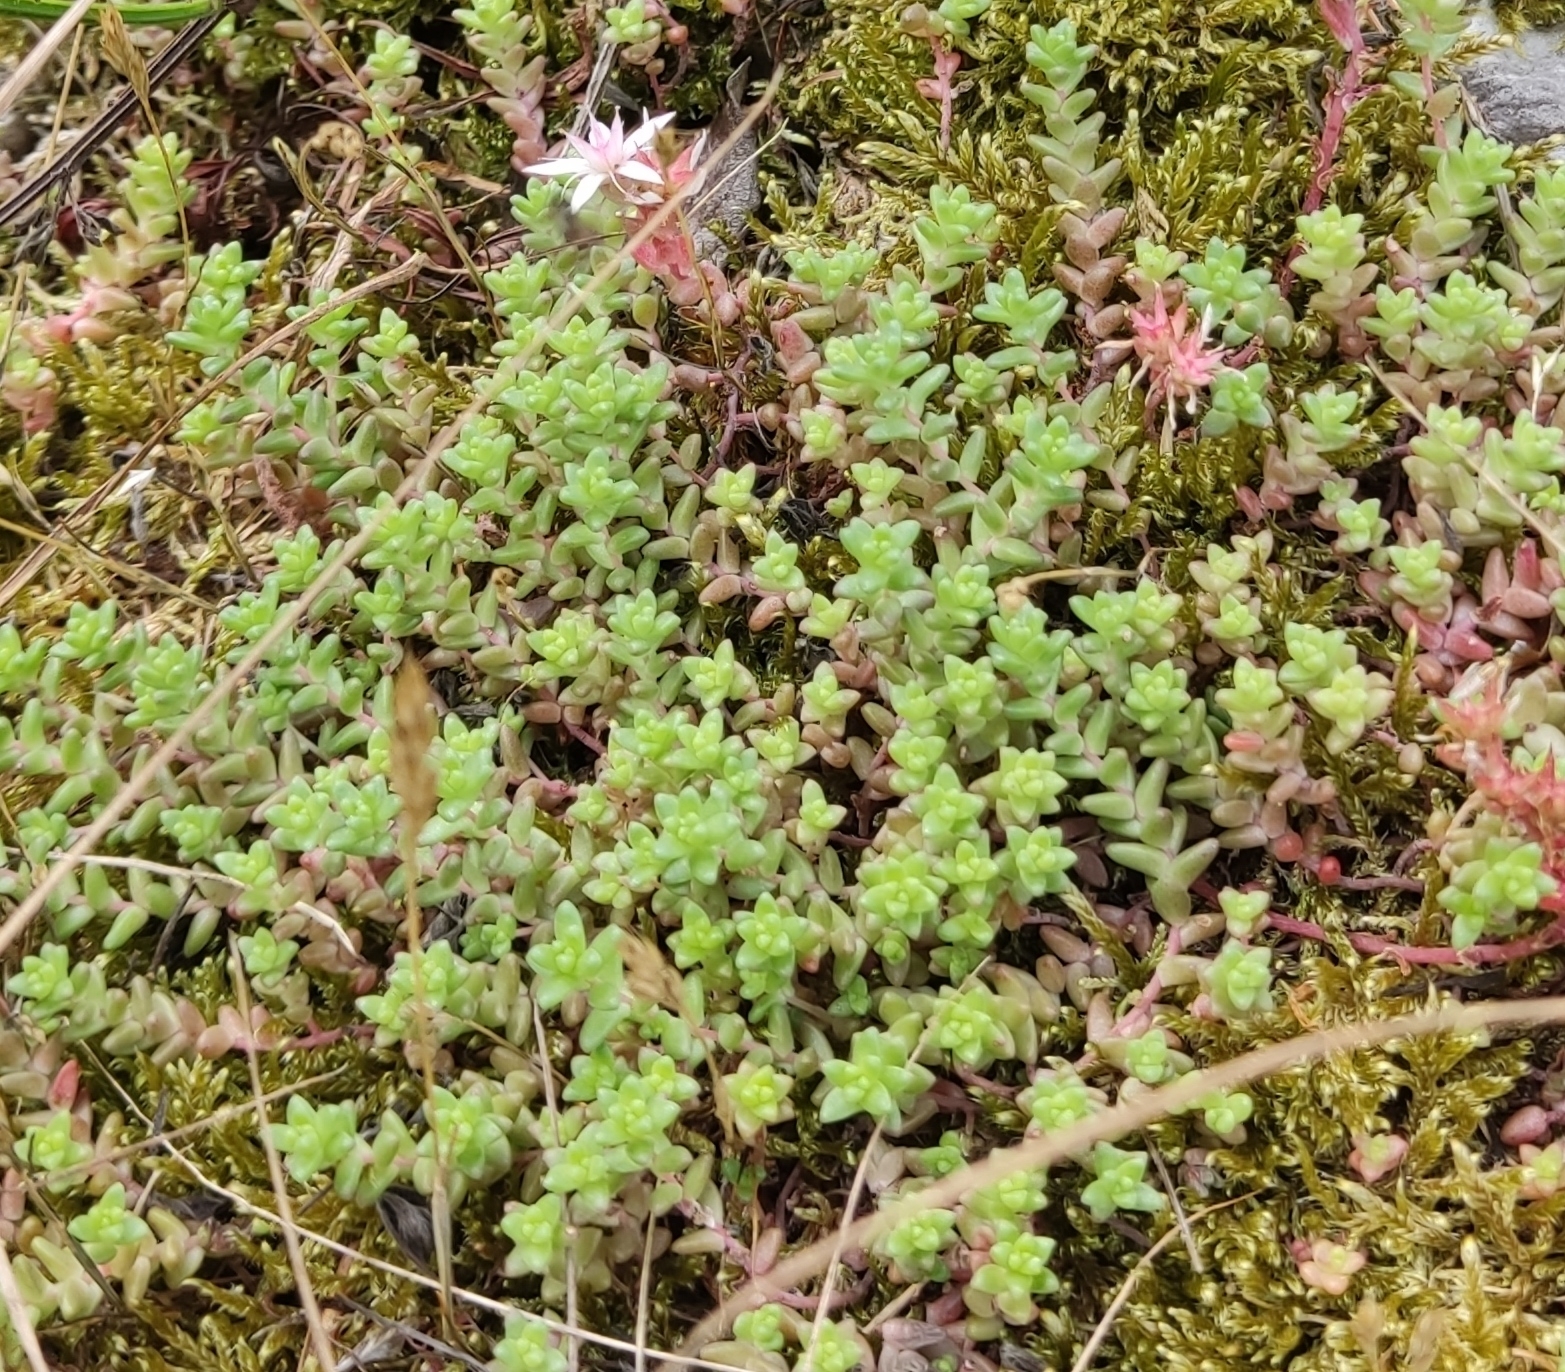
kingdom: Plantae
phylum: Tracheophyta
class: Magnoliopsida
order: Saxifragales
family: Crassulaceae
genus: Sedum
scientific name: Sedum anglicum
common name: English stonecrop
